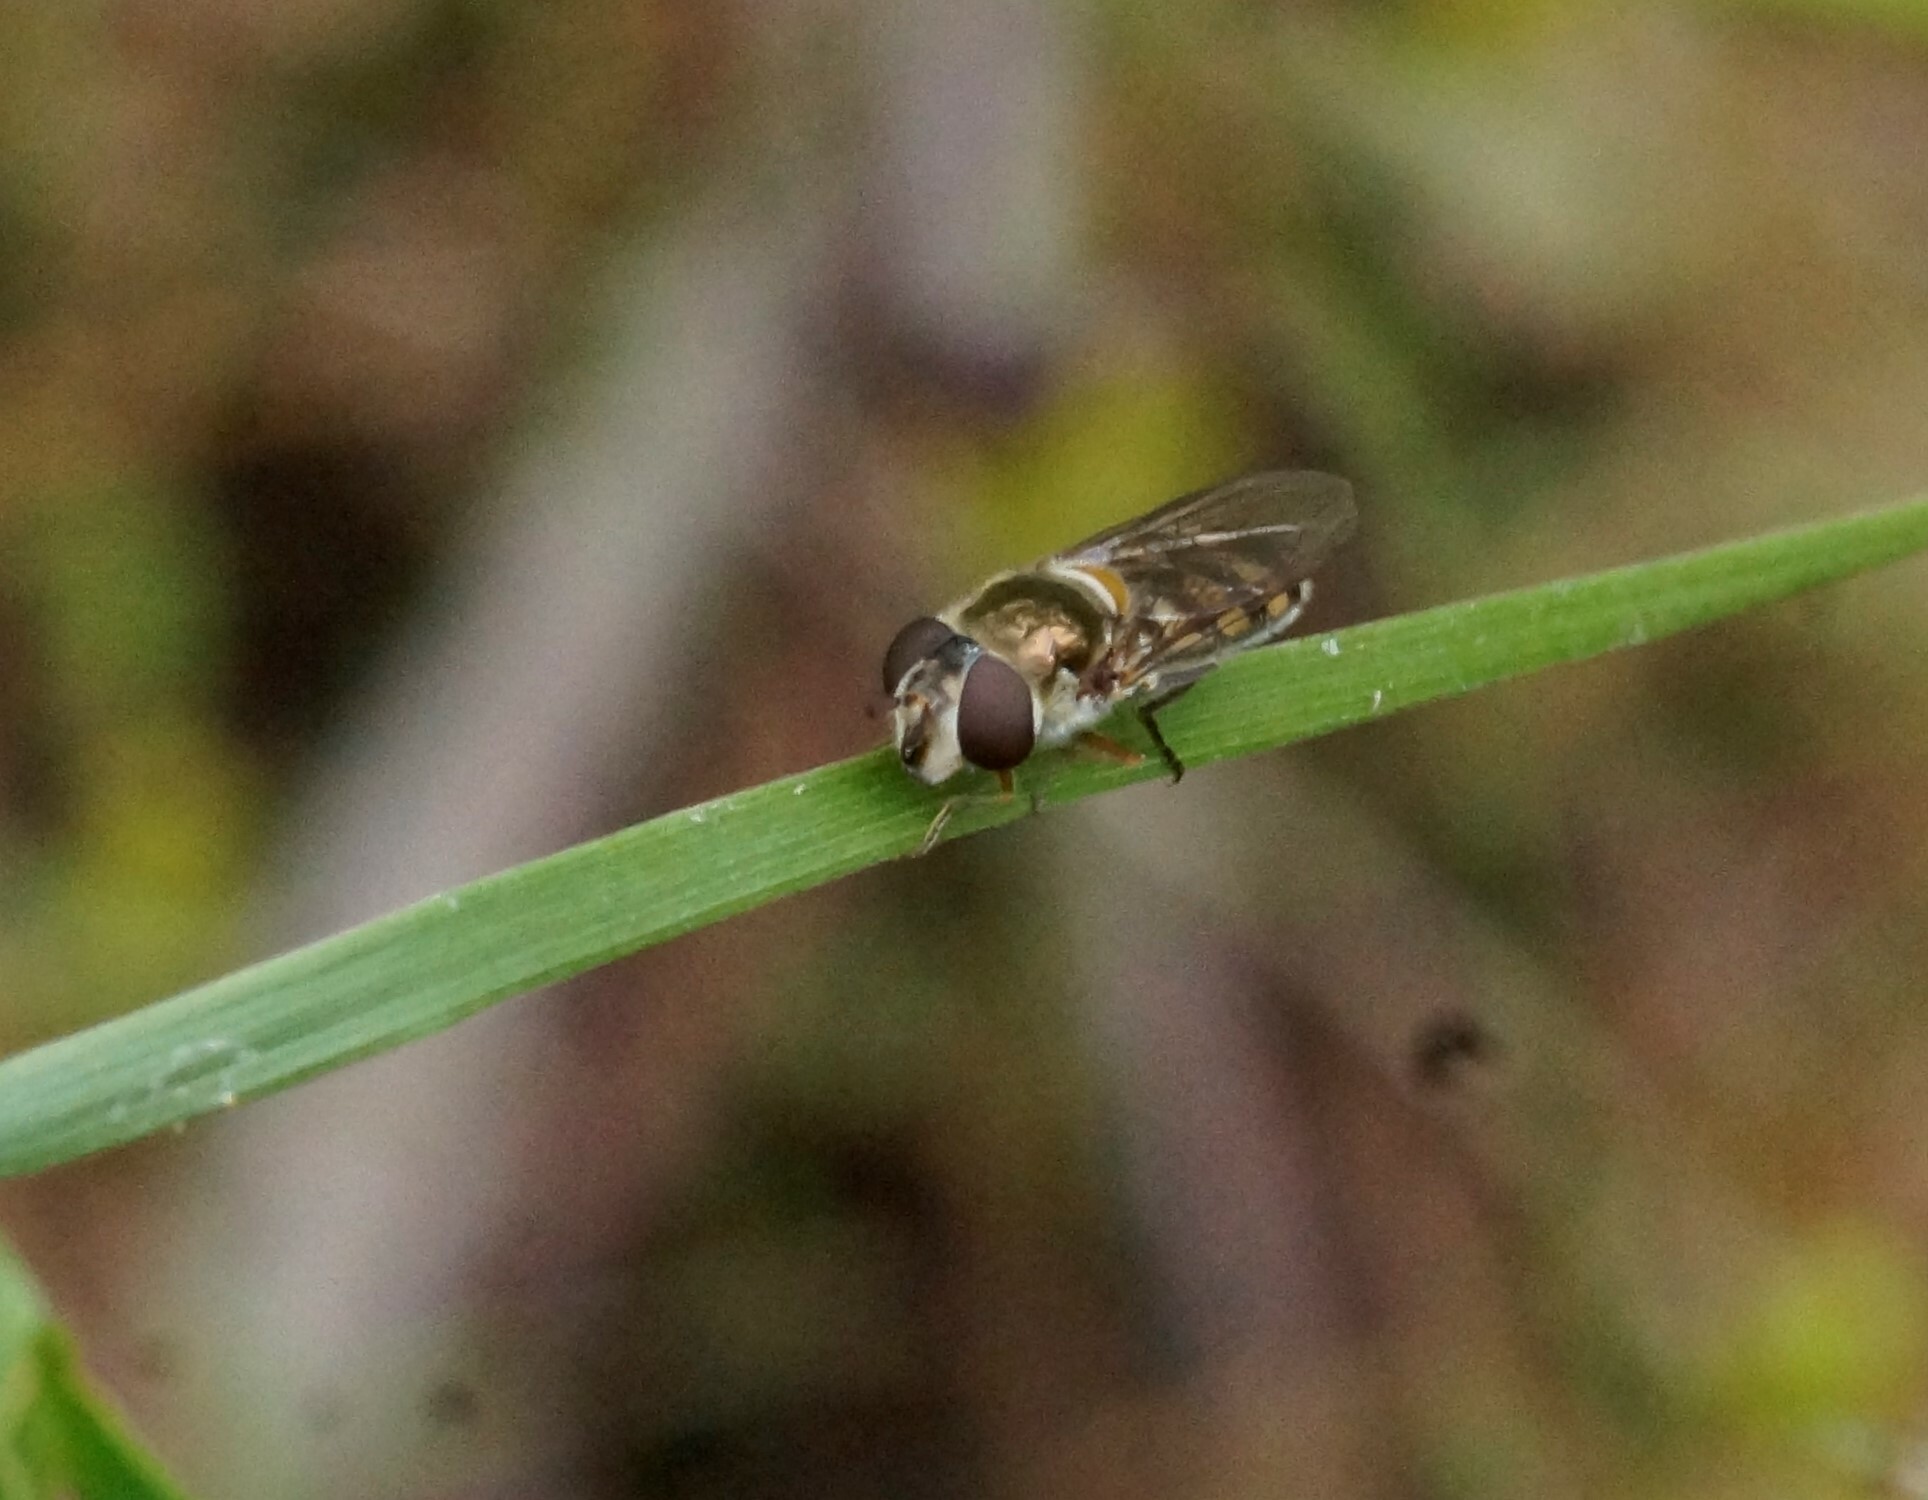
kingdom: Animalia
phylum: Arthropoda
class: Insecta
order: Diptera
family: Syrphidae
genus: Melangyna
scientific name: Melangyna viridiceps
